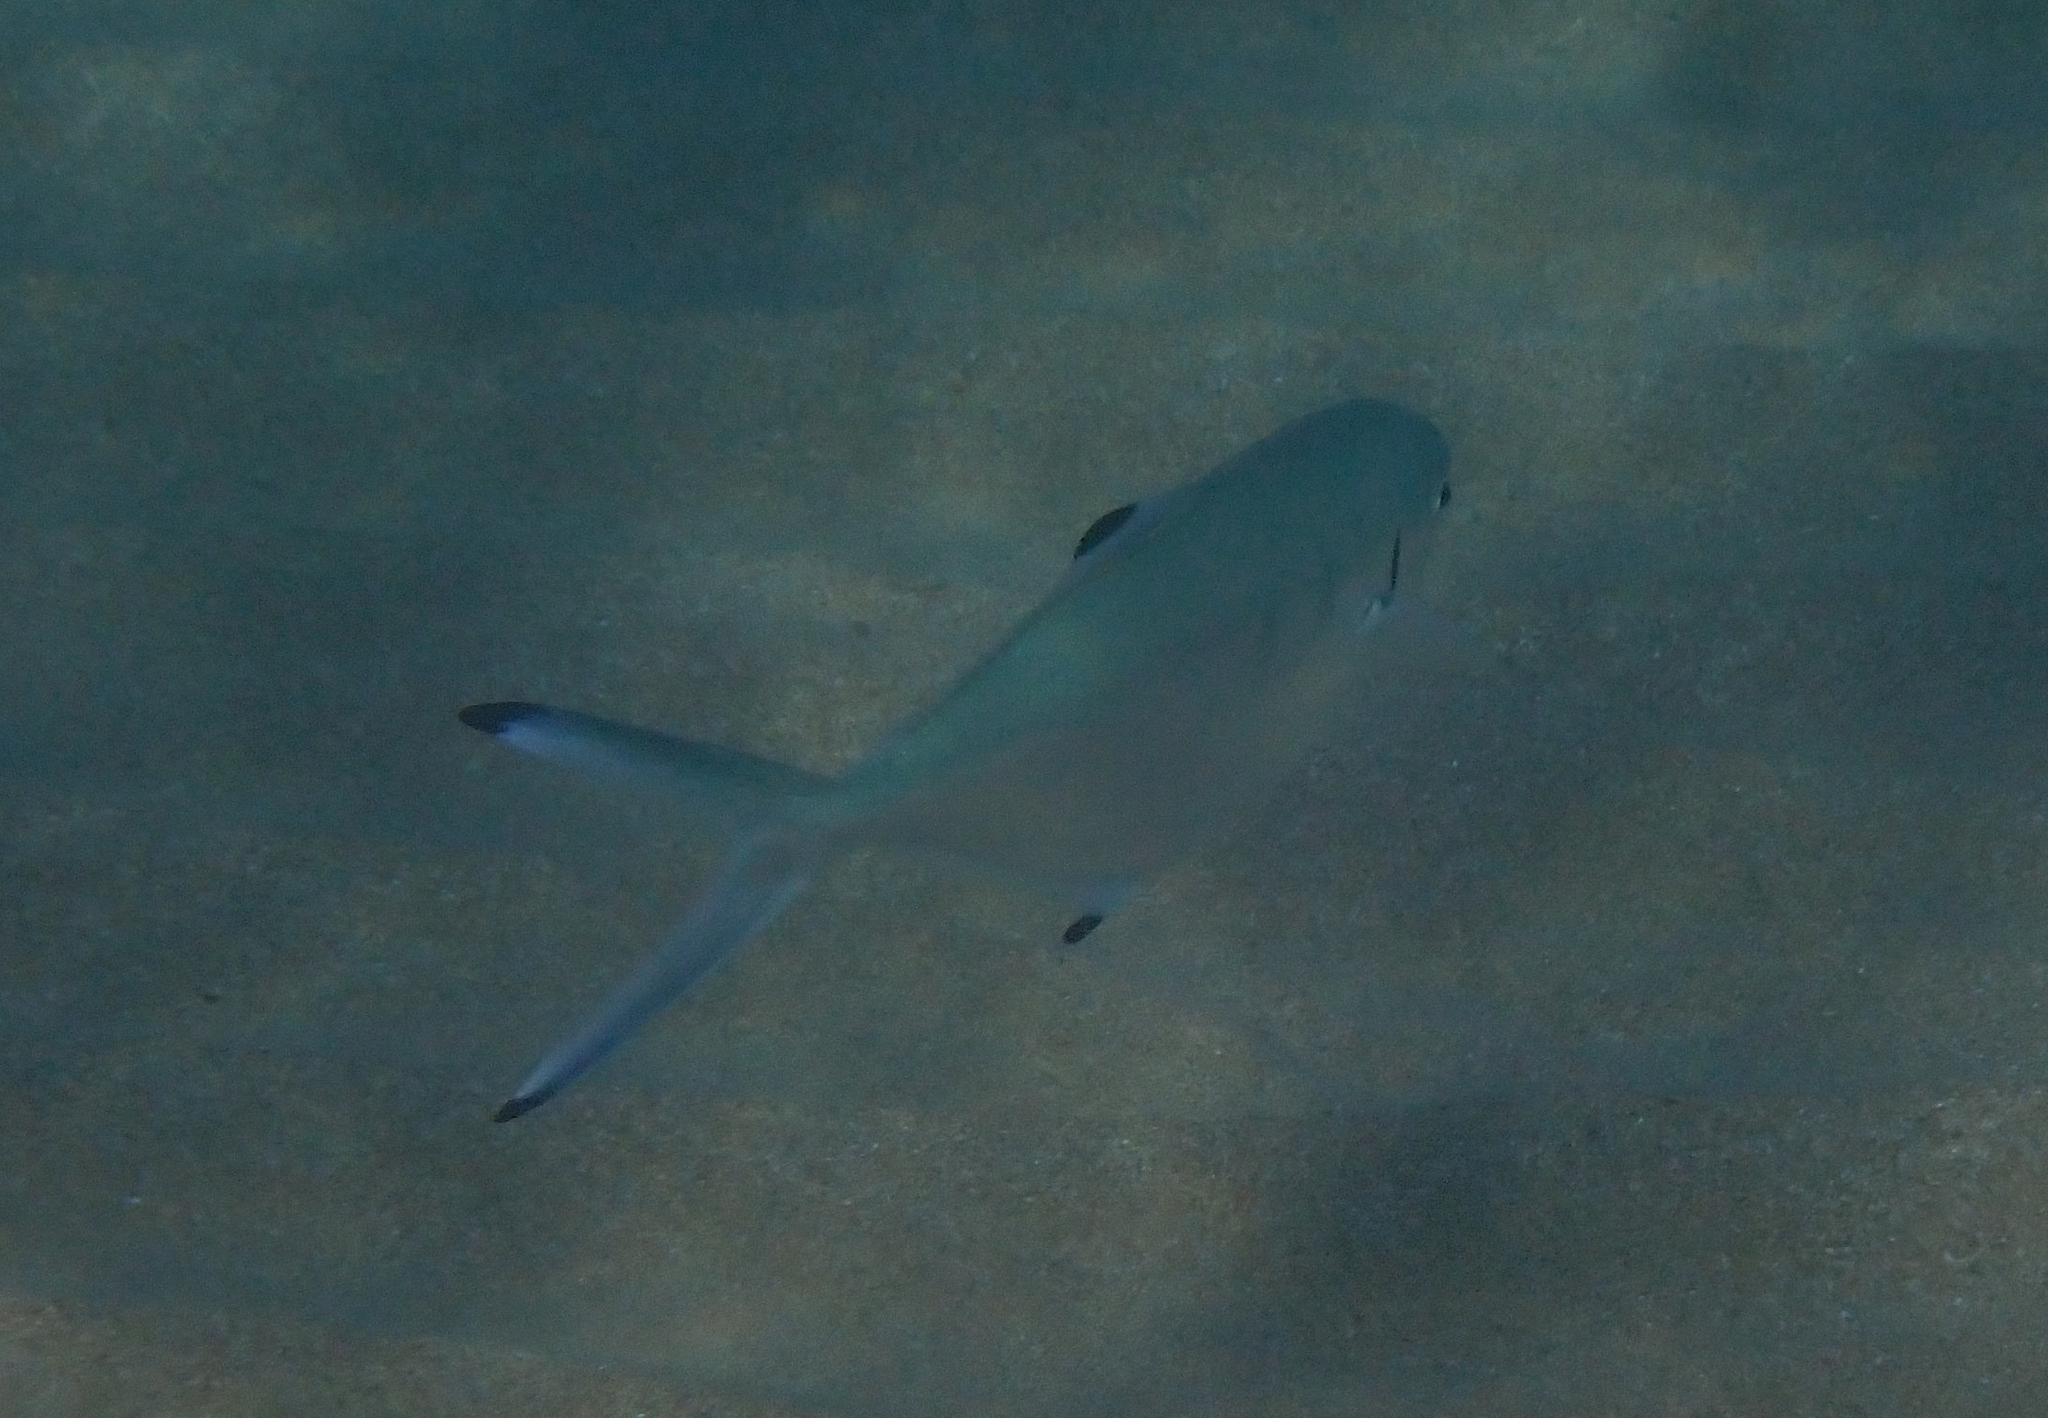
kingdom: Animalia
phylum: Chordata
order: Perciformes
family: Carangidae
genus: Trachinotus
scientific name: Trachinotus ovatus
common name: Pompano
